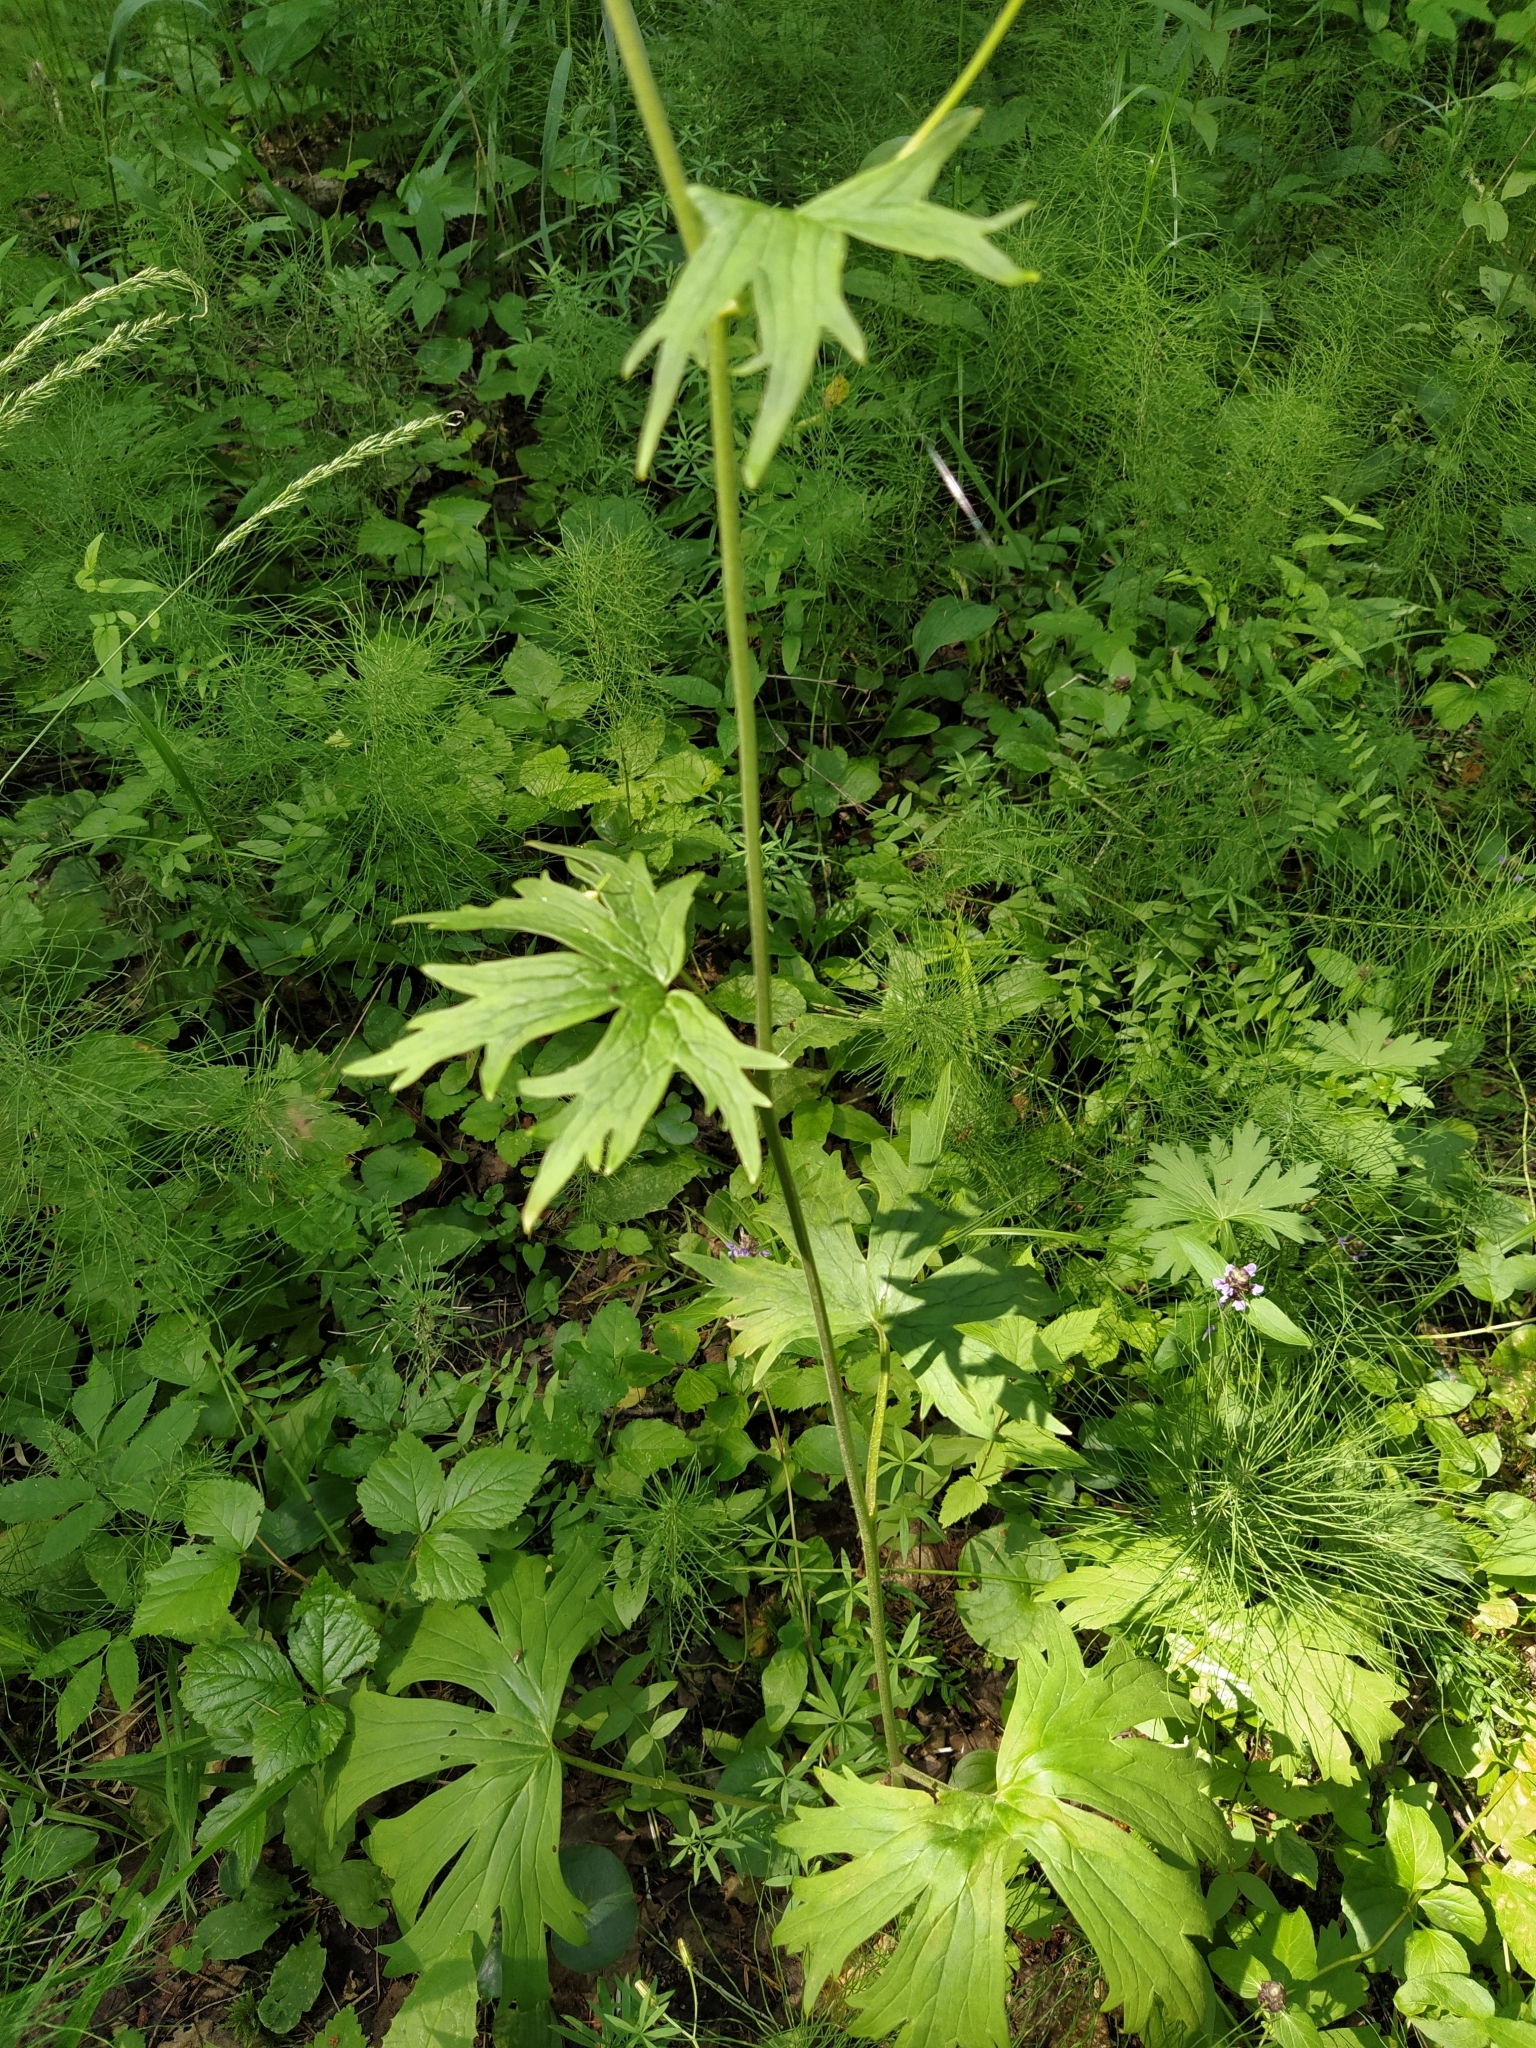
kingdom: Plantae
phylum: Tracheophyta
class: Magnoliopsida
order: Ranunculales
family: Ranunculaceae
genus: Aconitum
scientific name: Aconitum lasiostomum
